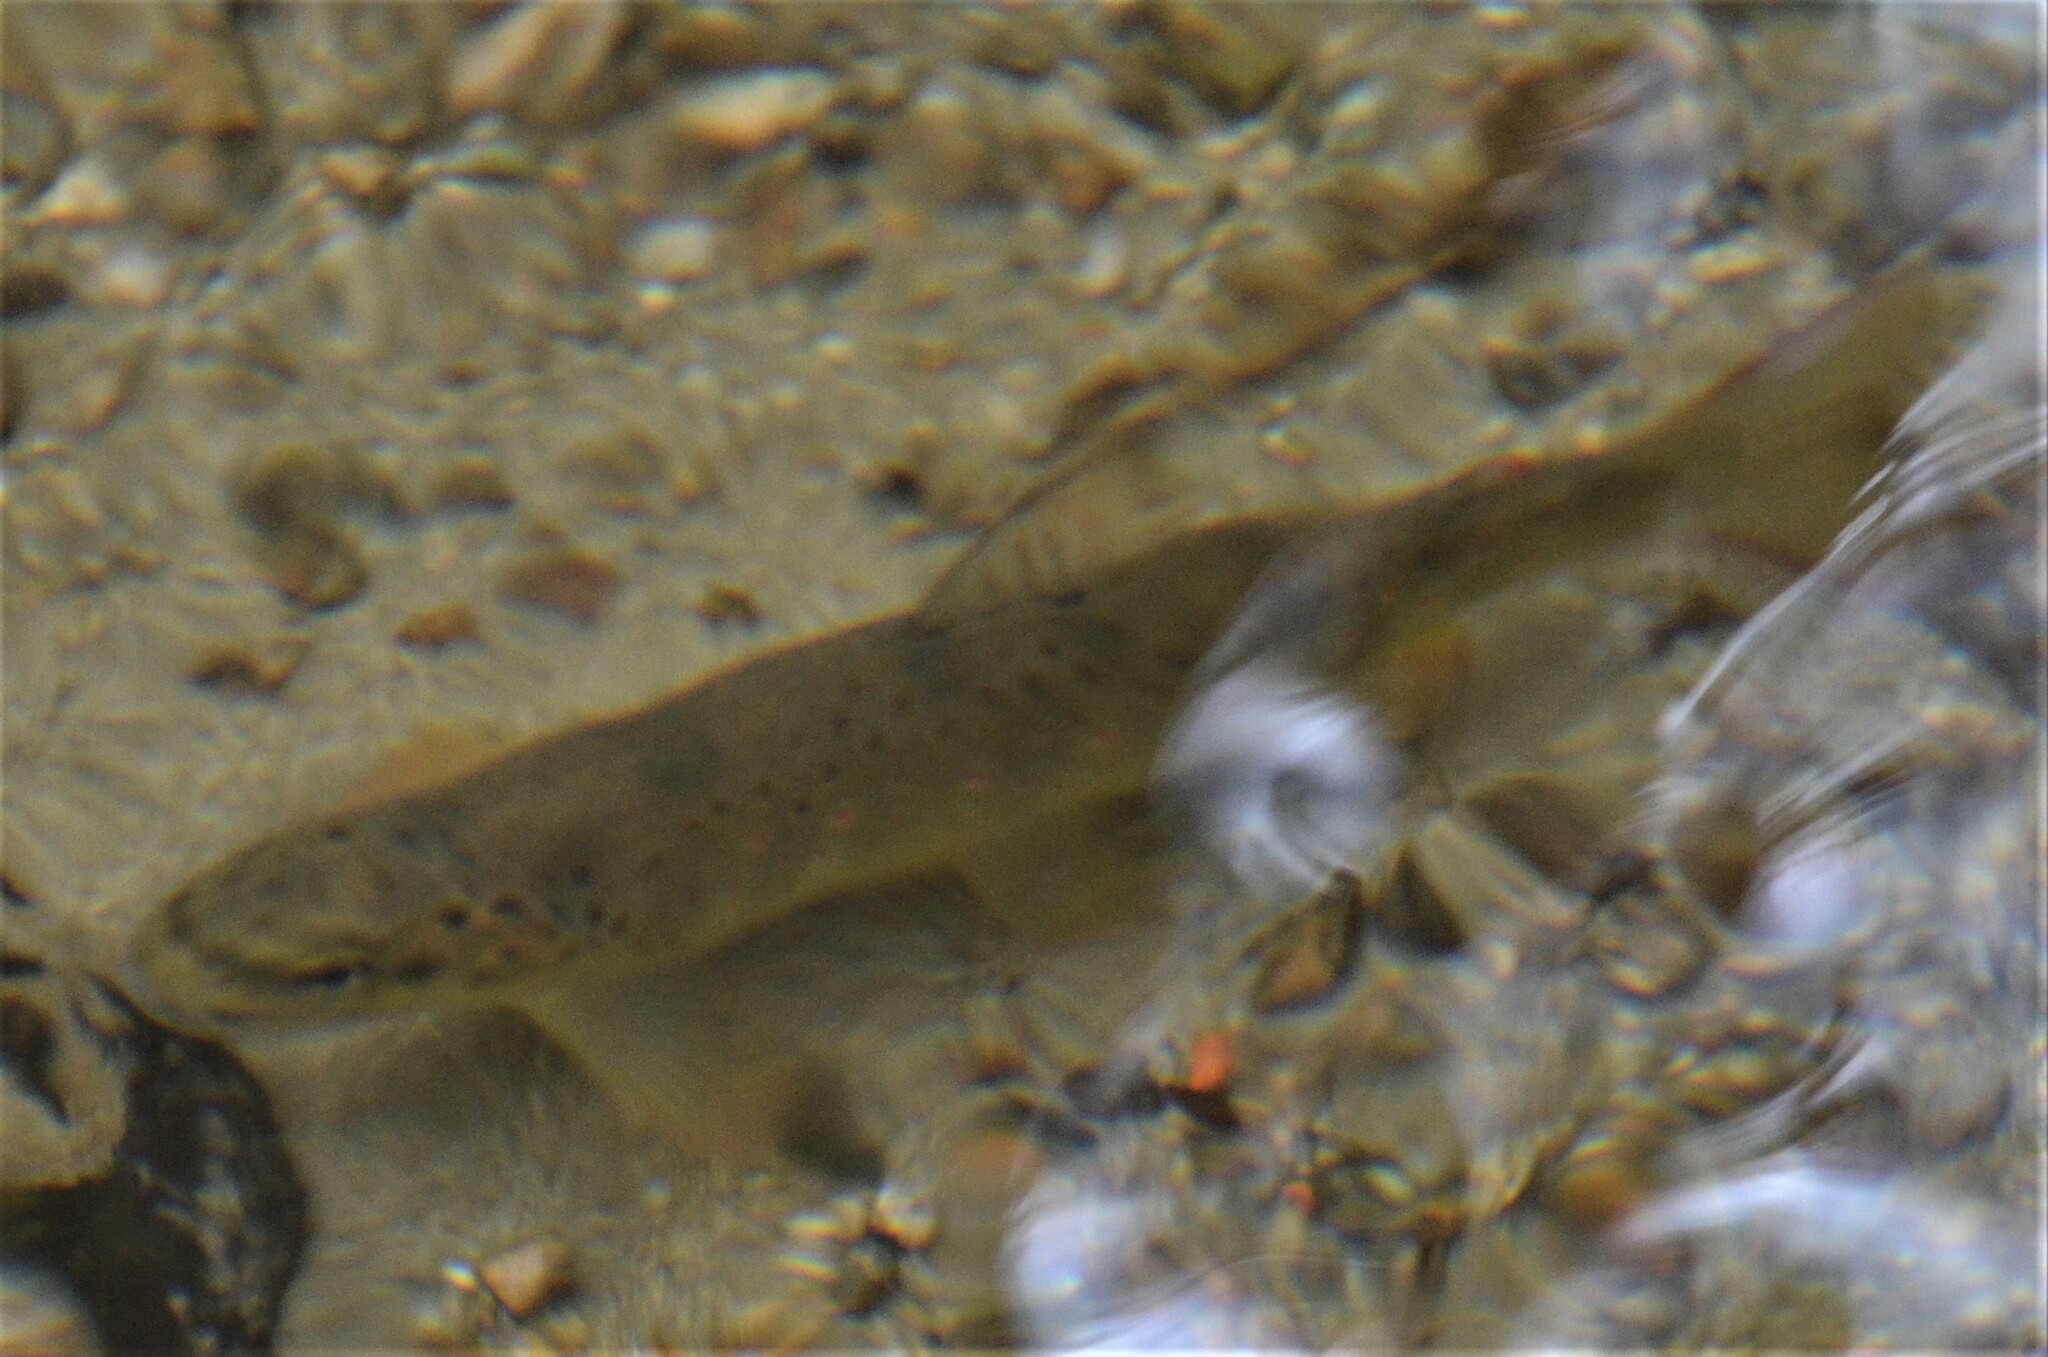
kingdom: Animalia
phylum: Chordata
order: Salmoniformes
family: Salmonidae
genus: Salmo
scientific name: Salmo trutta
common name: Brown trout
